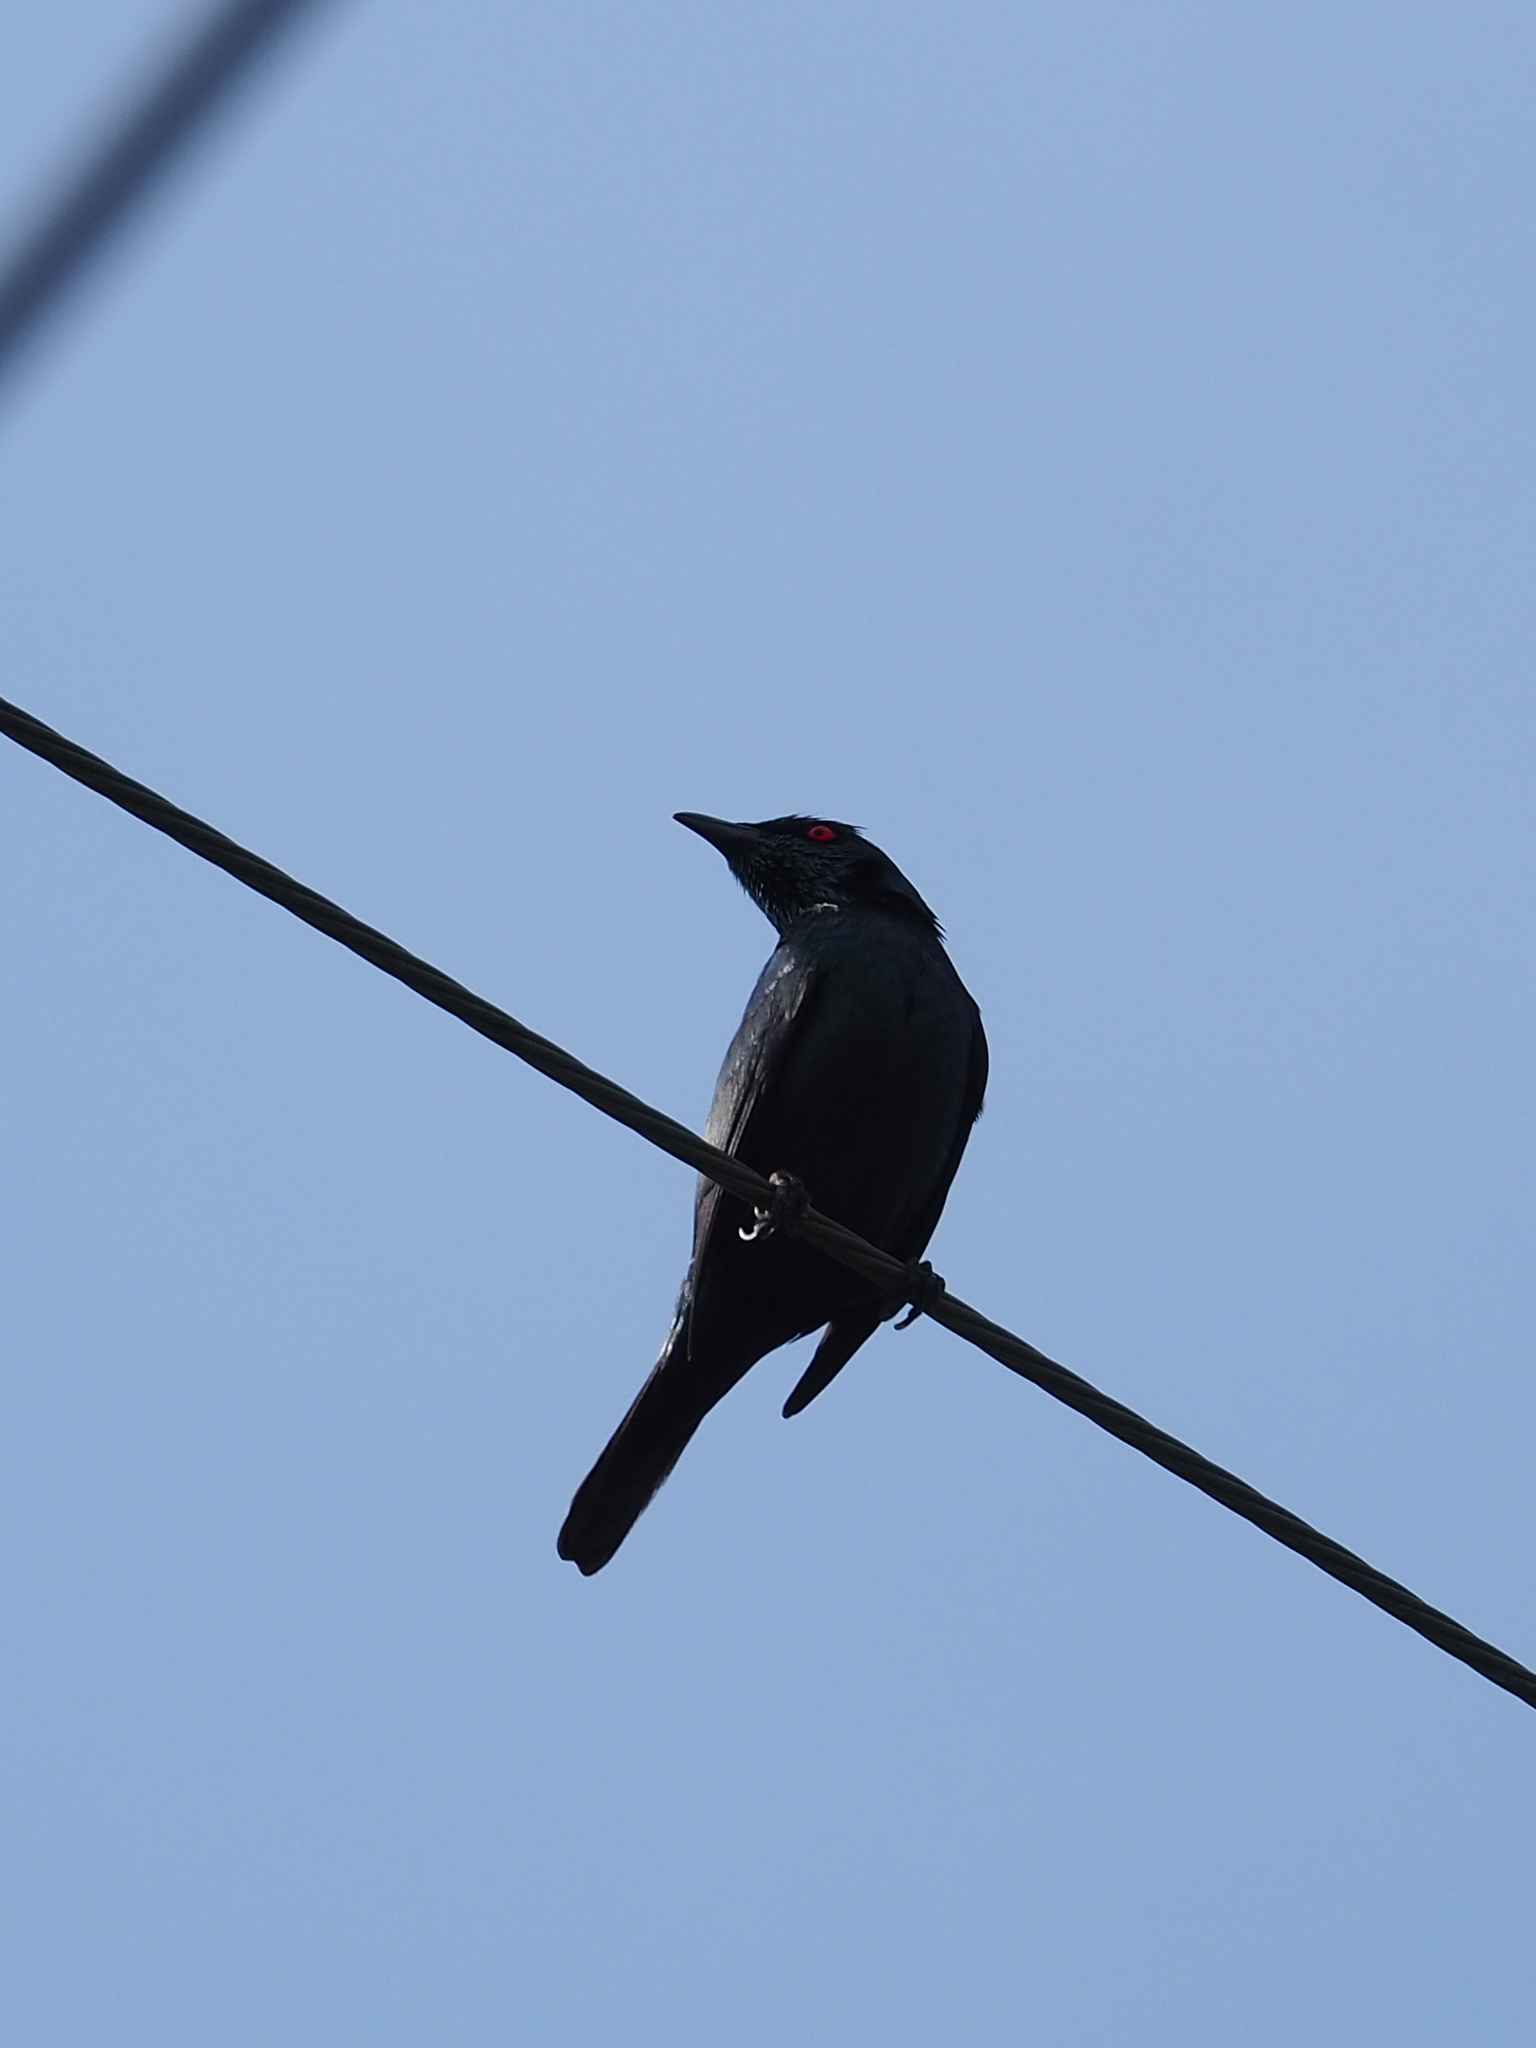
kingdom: Animalia
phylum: Chordata
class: Aves
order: Passeriformes
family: Sturnidae
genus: Aplonis
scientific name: Aplonis panayensis
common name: Asian glossy starling
